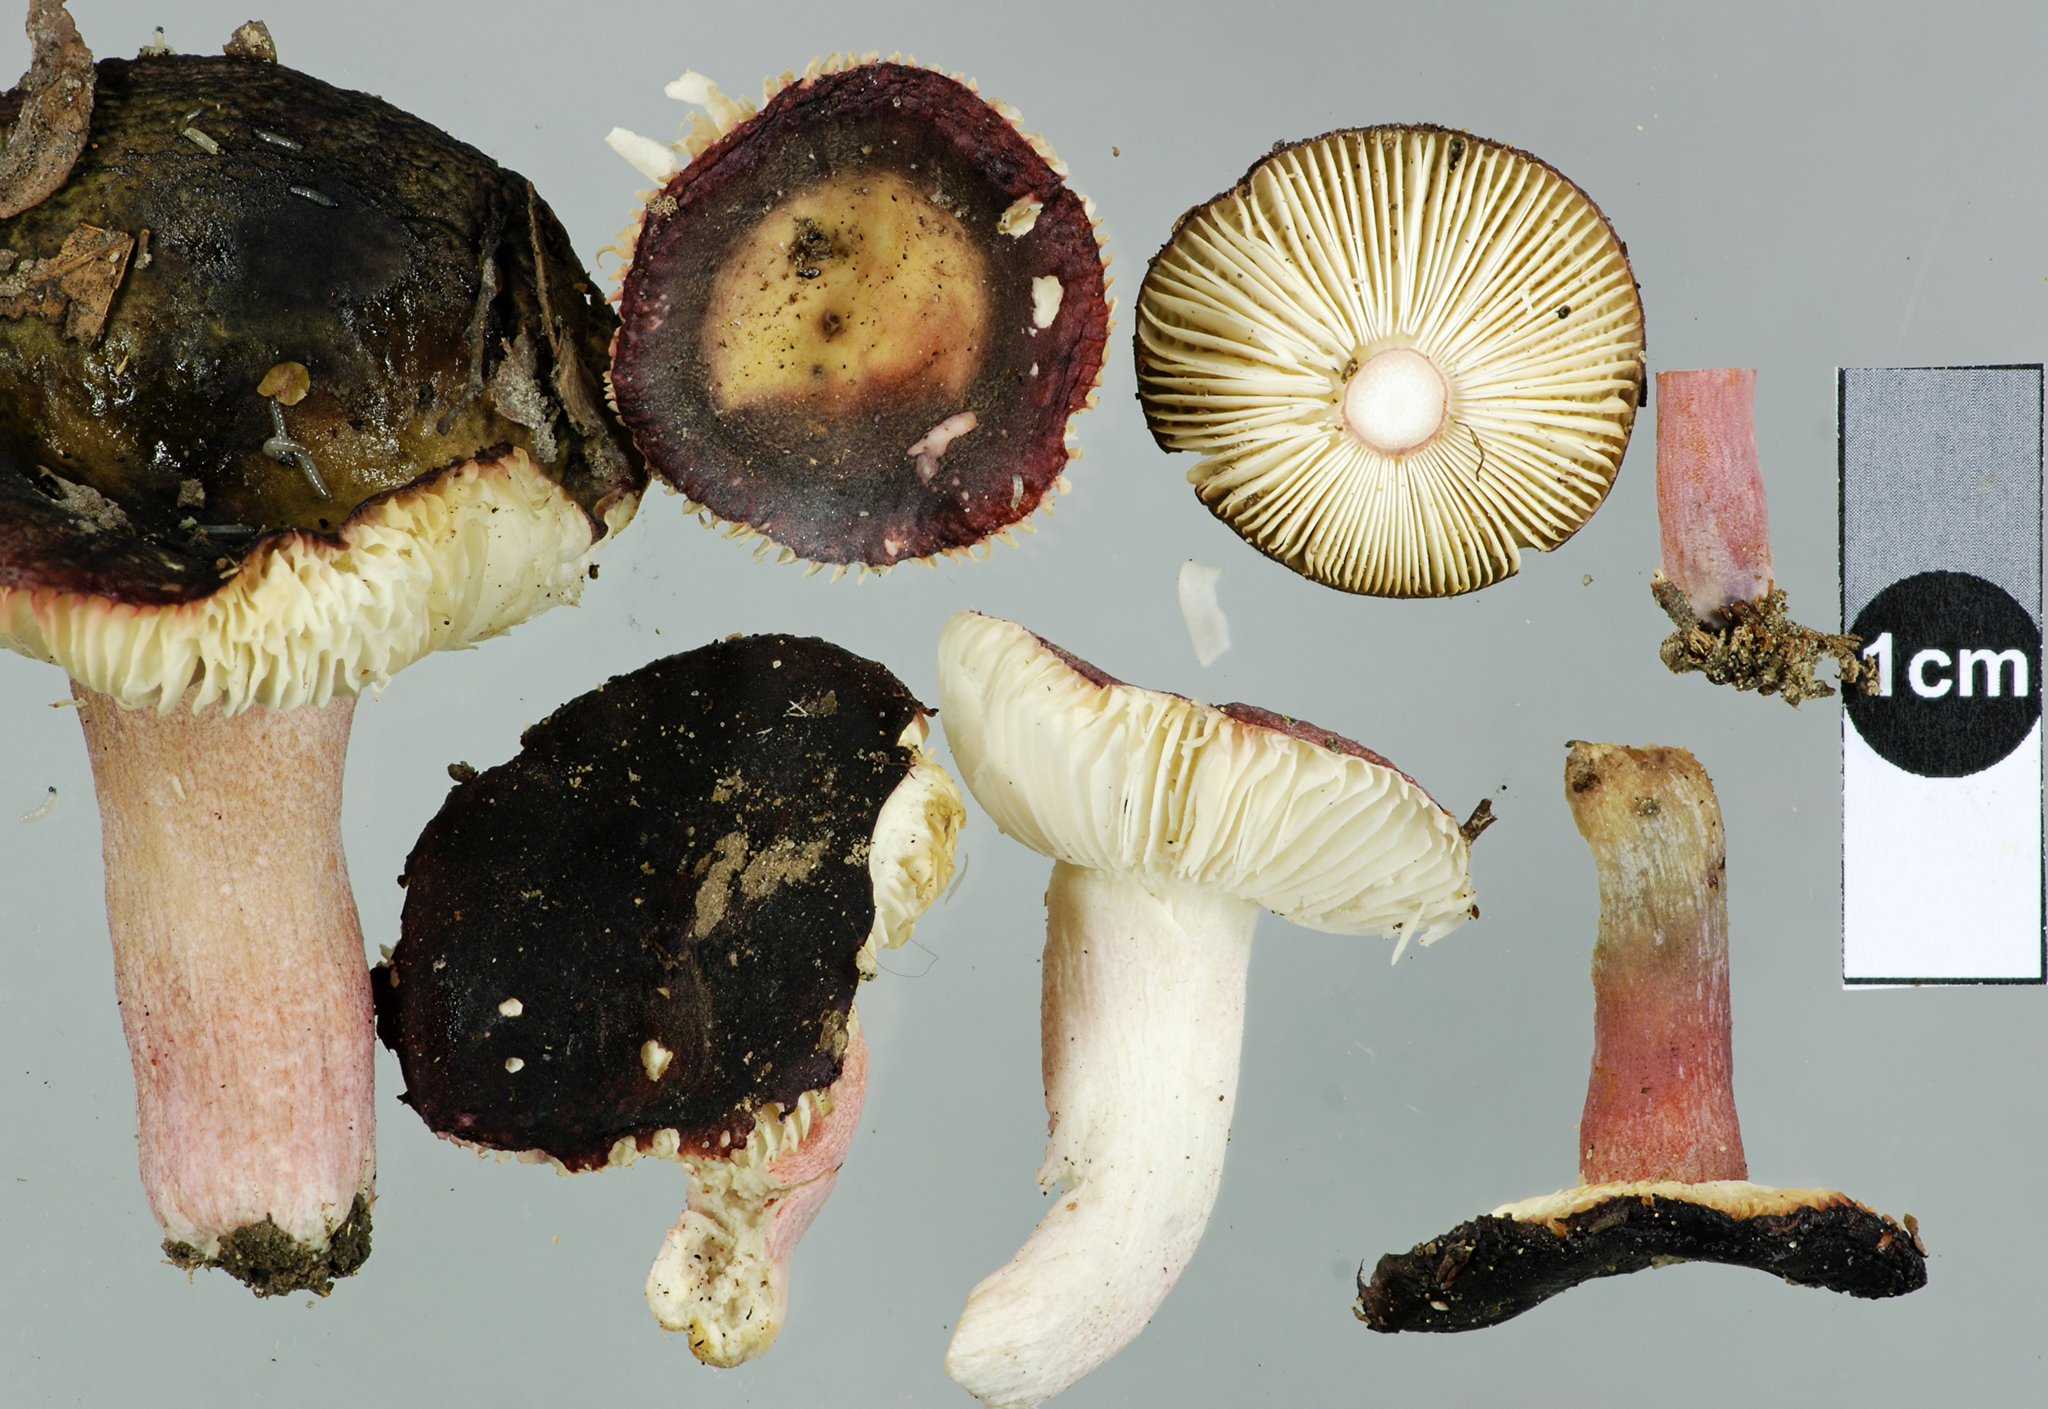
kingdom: Fungi
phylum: Basidiomycota
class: Agaricomycetes
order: Russulales
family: Russulaceae
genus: Russula
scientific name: Russula griseoviolacea
